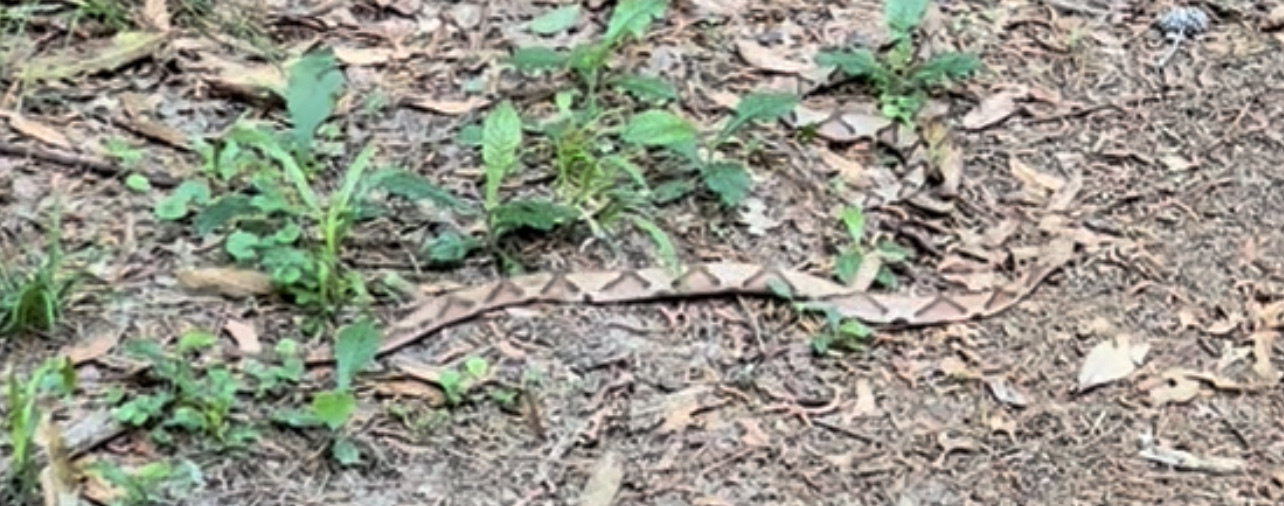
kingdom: Animalia
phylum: Chordata
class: Squamata
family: Viperidae
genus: Agkistrodon
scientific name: Agkistrodon contortrix
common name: Northern copperhead
